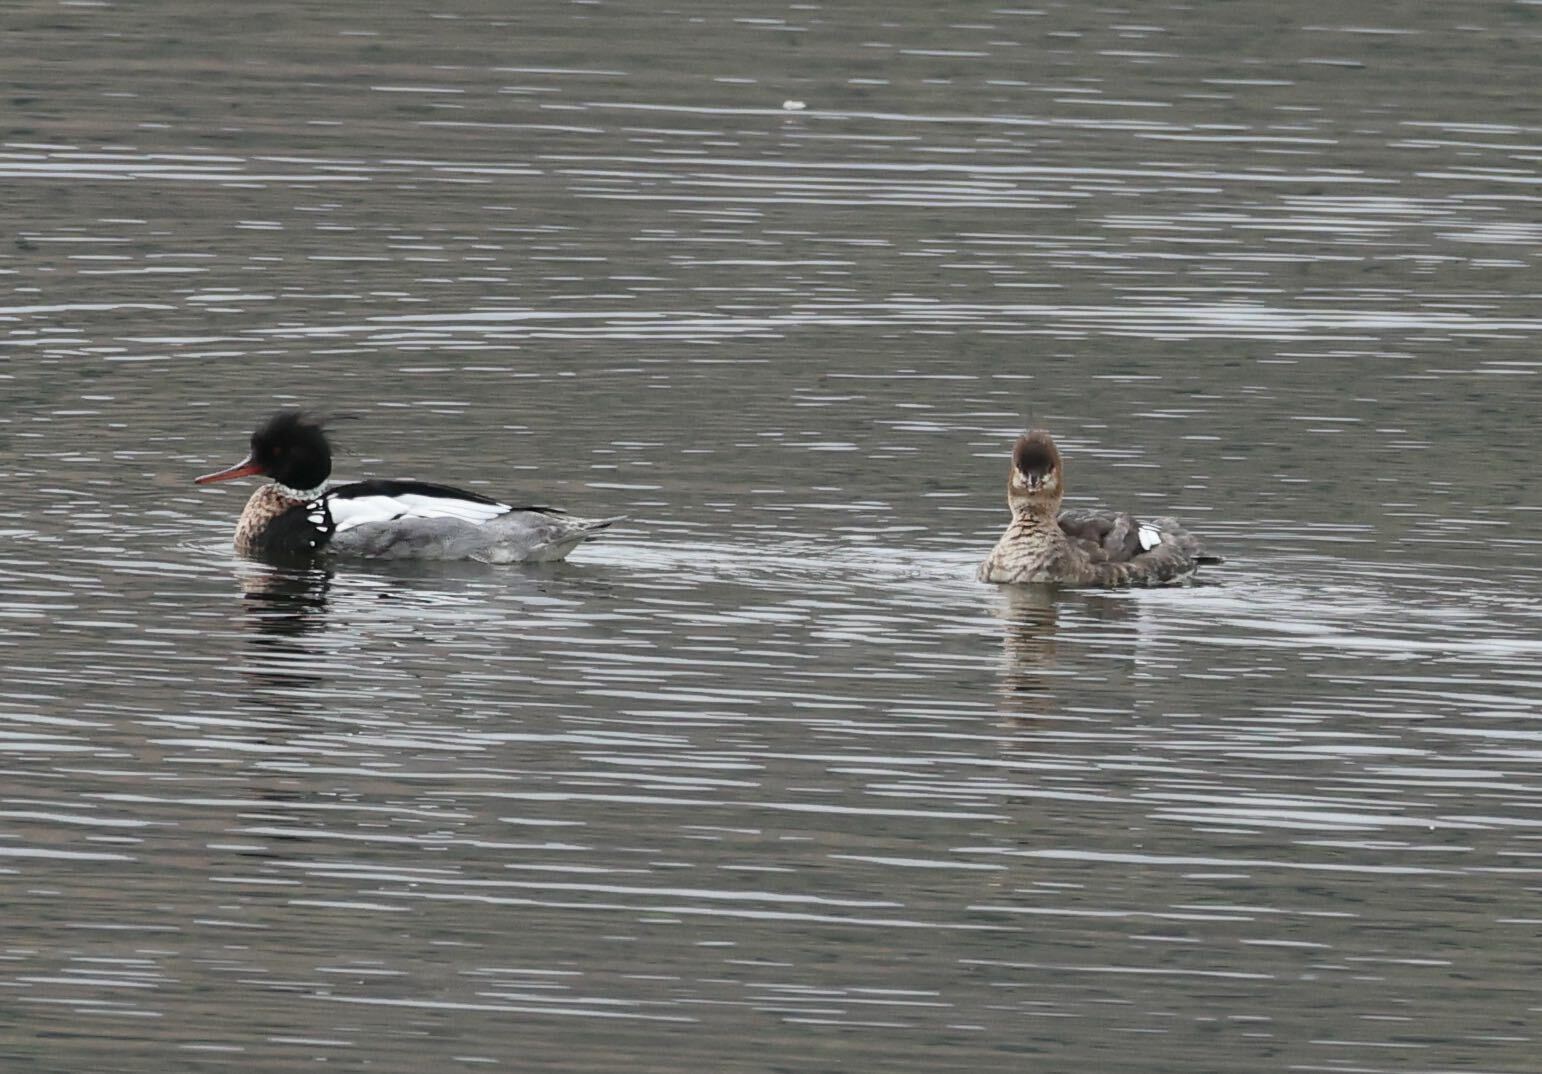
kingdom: Animalia
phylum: Chordata
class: Aves
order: Anseriformes
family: Anatidae
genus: Mergus
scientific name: Mergus serrator
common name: Red-breasted merganser
